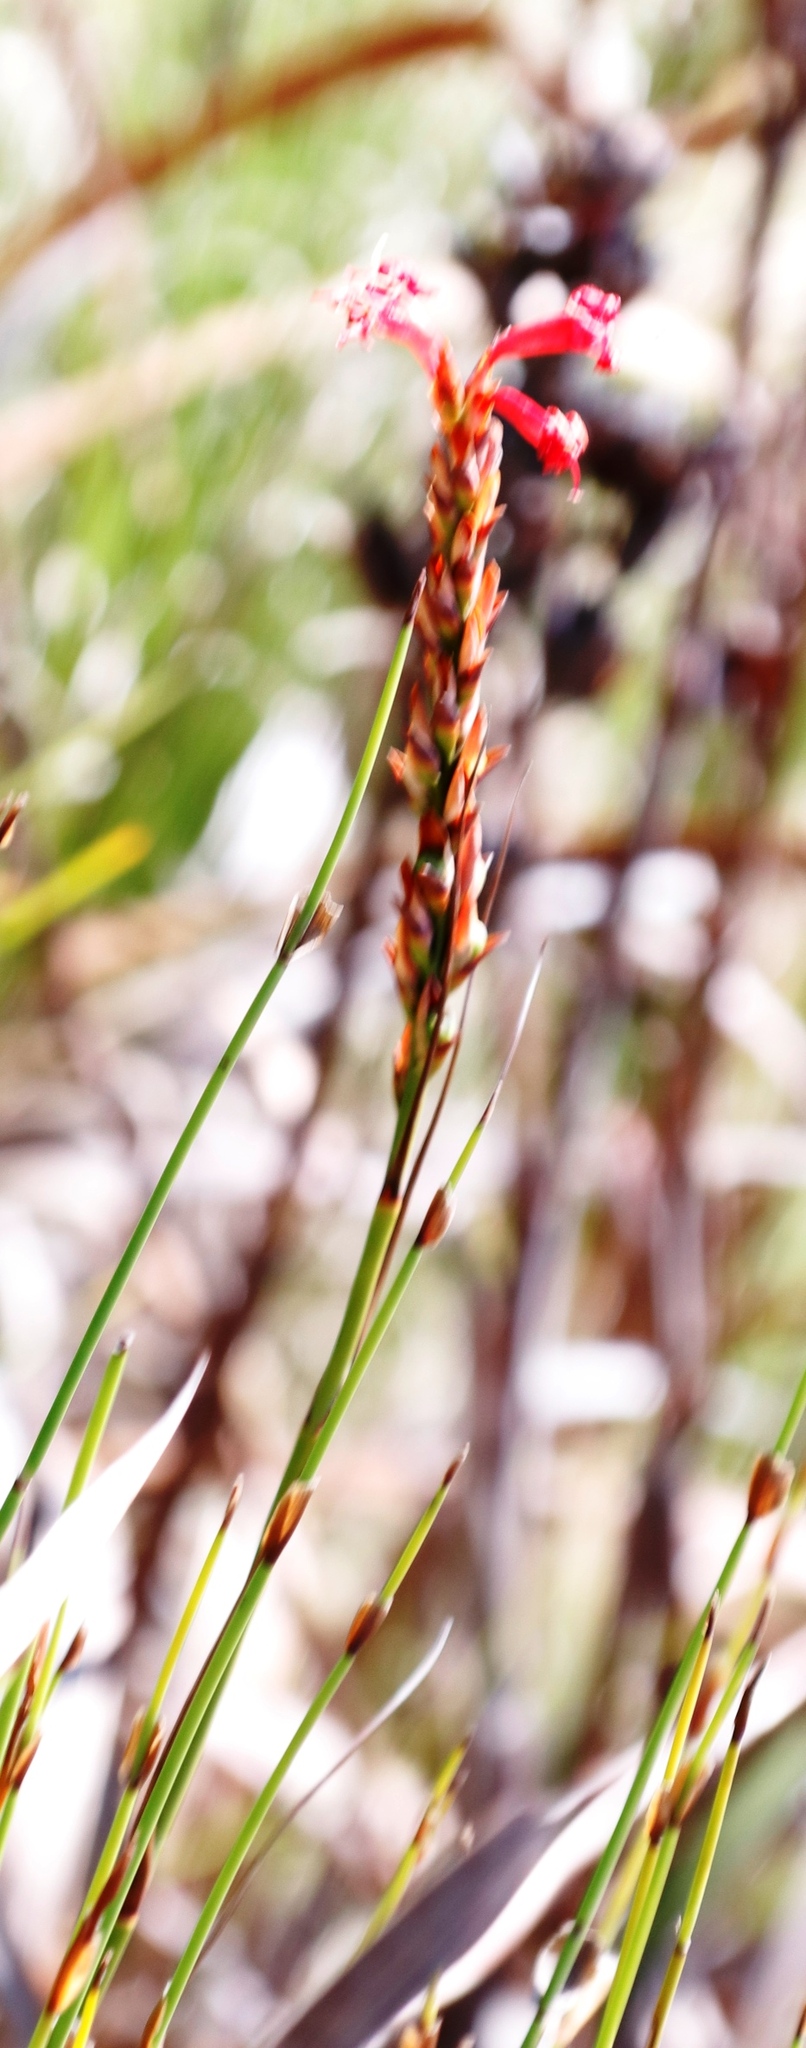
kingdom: Plantae
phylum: Tracheophyta
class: Liliopsida
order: Asparagales
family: Iridaceae
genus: Tritoniopsis
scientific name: Tritoniopsis triticea
